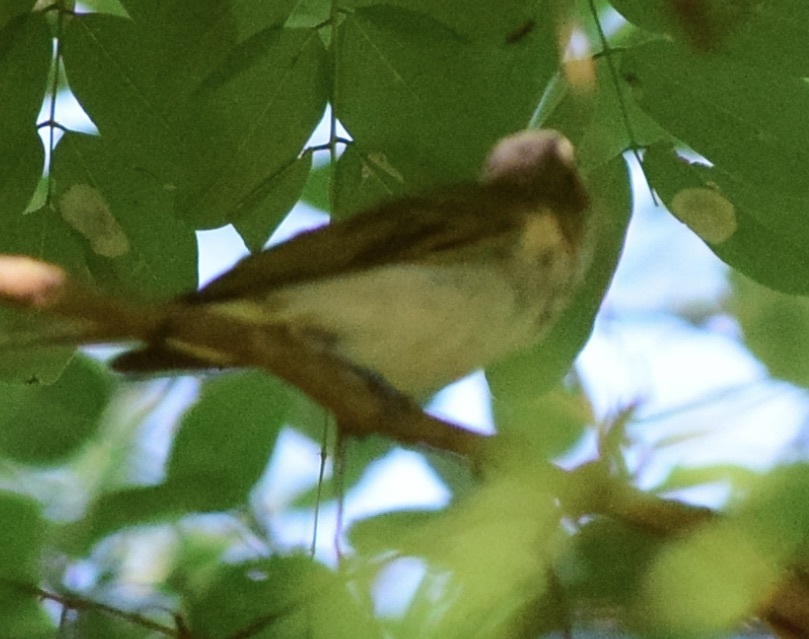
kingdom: Animalia
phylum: Chordata
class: Aves
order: Passeriformes
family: Vireonidae
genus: Vireo
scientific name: Vireo olivaceus
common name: Red-eyed vireo
